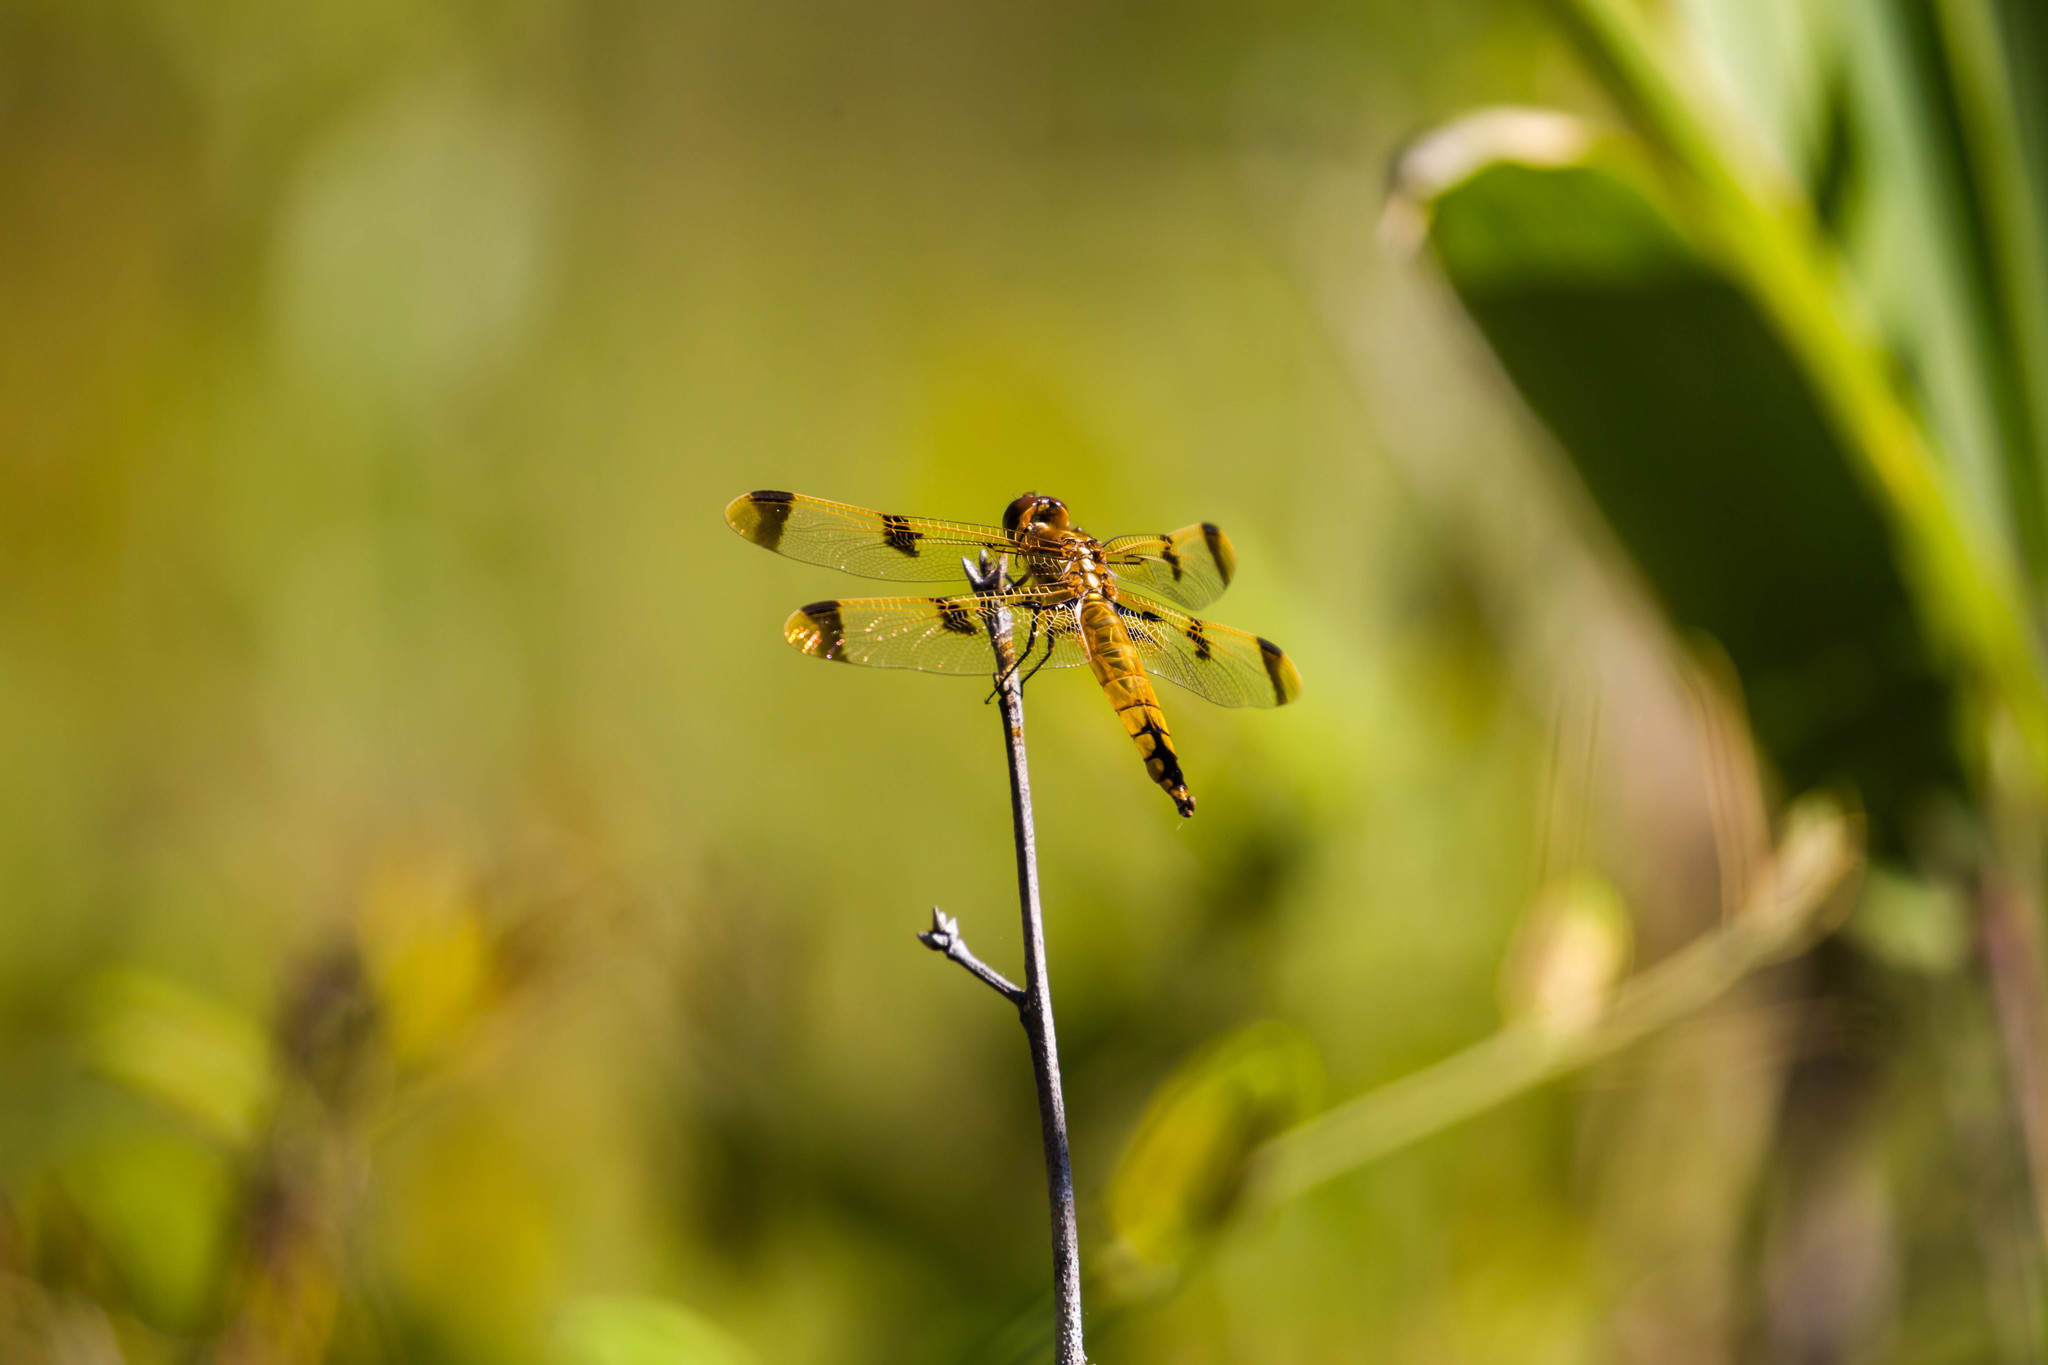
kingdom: Animalia
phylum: Arthropoda
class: Insecta
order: Odonata
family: Libellulidae
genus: Libellula
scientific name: Libellula semifasciata
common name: Painted skimmer
